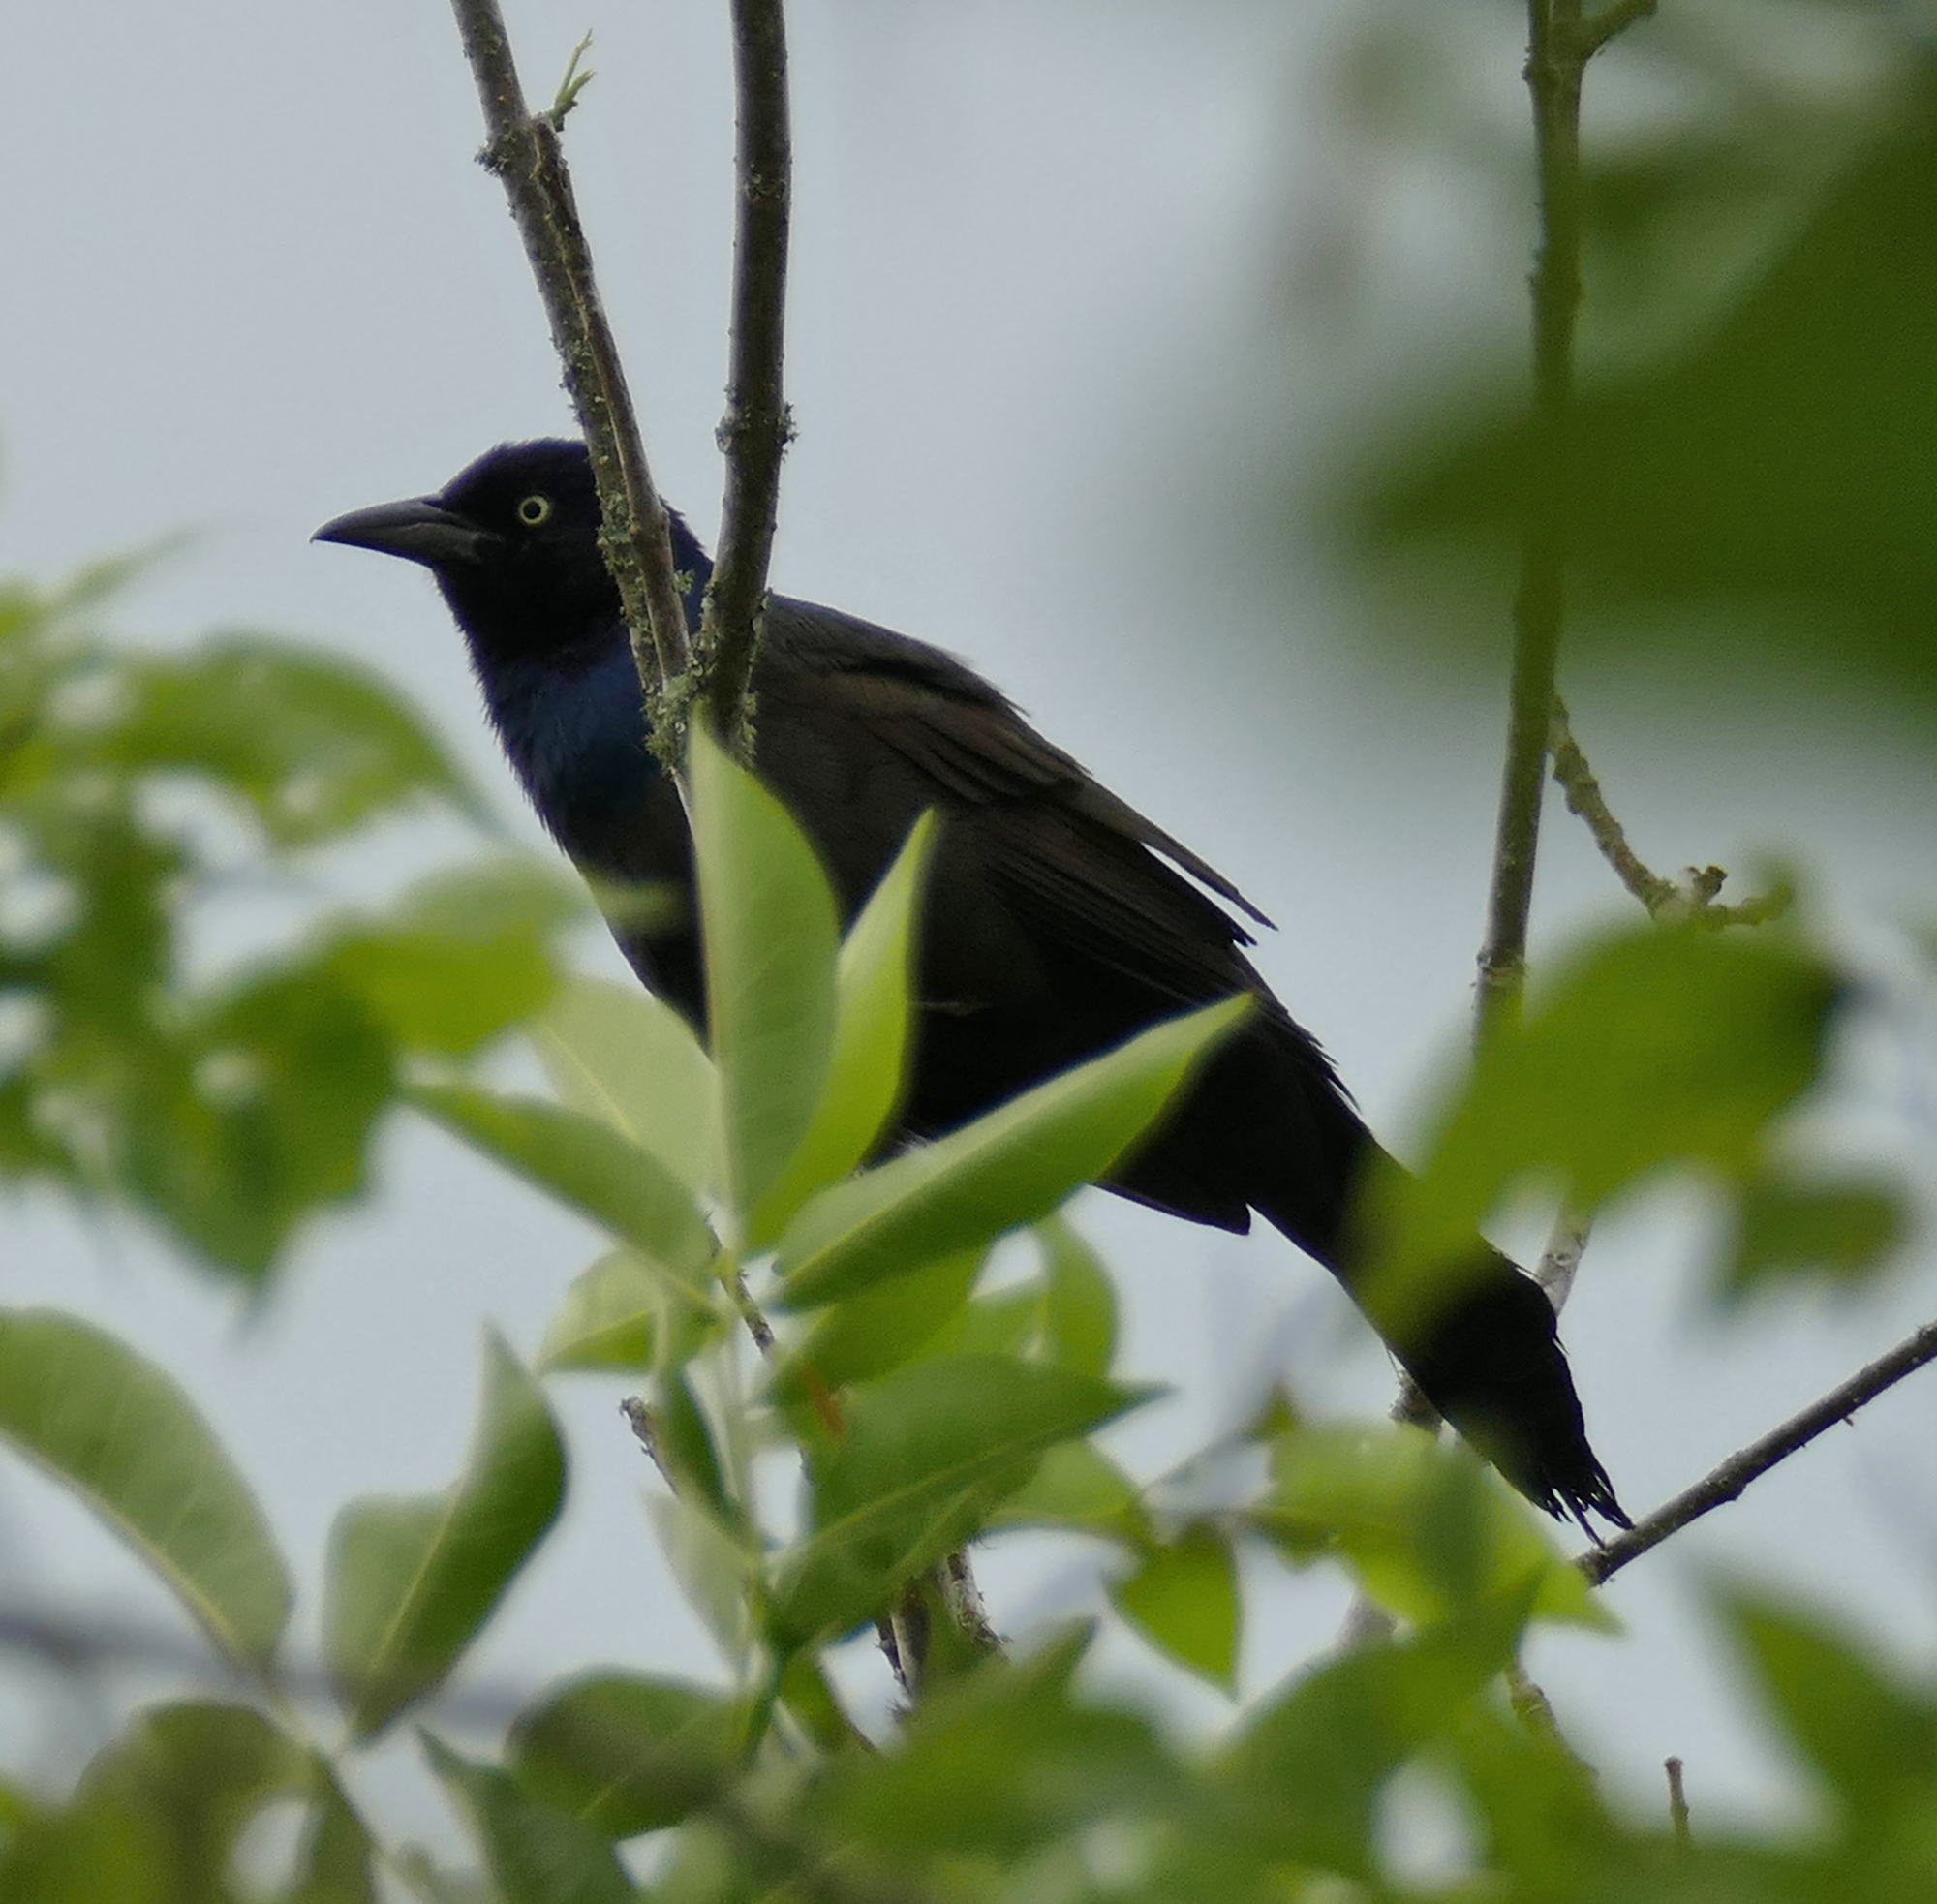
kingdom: Animalia
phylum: Chordata
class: Aves
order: Passeriformes
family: Icteridae
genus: Quiscalus
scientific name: Quiscalus quiscula
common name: Common grackle
